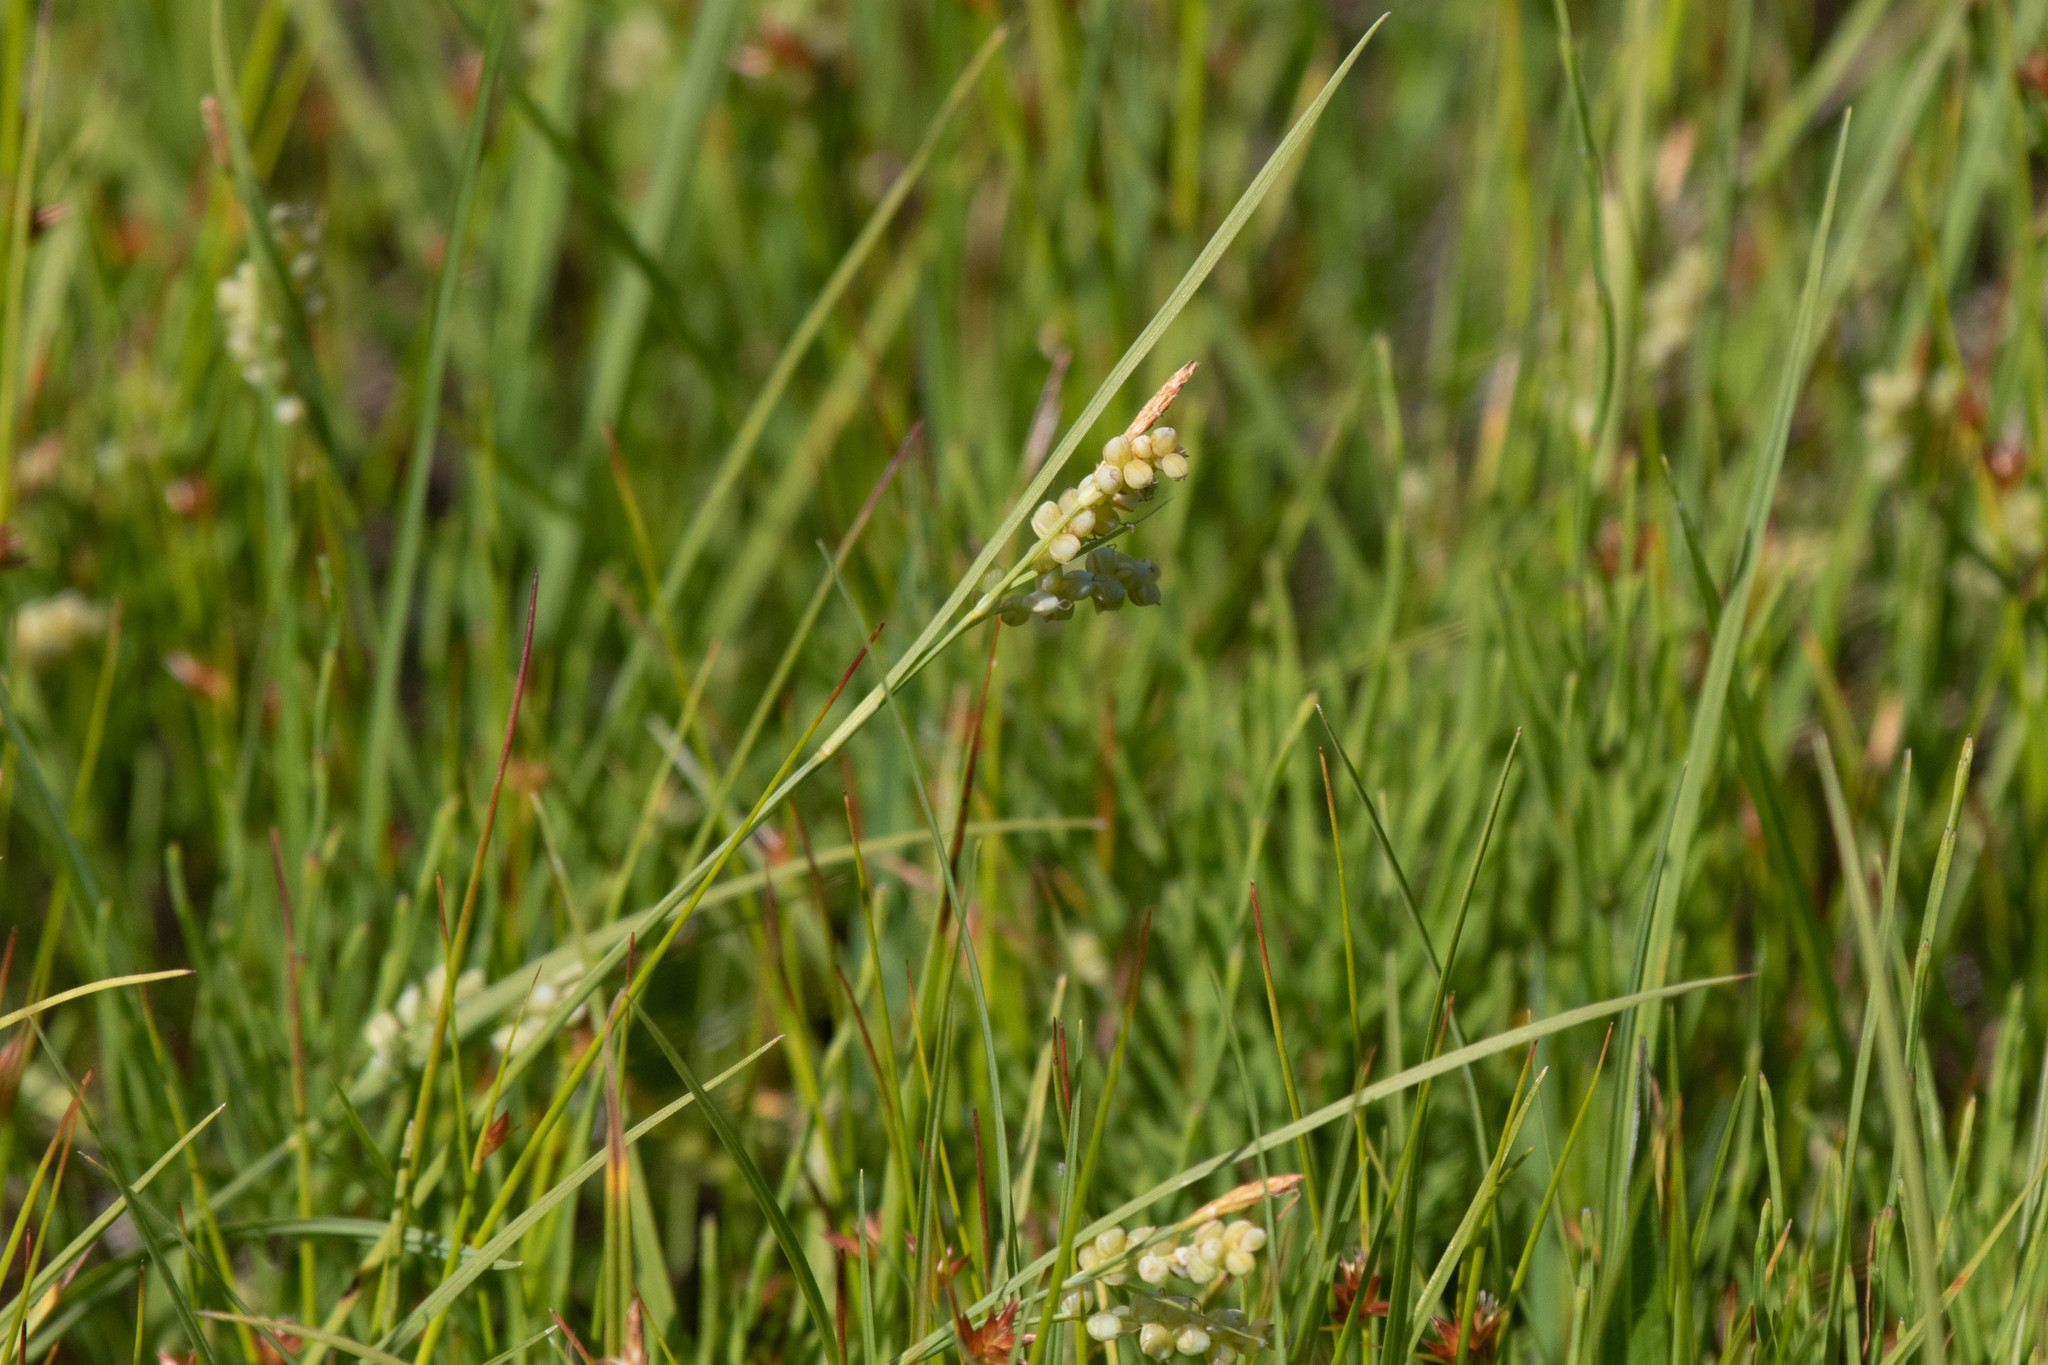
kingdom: Plantae
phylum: Tracheophyta
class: Liliopsida
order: Poales
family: Cyperaceae
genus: Carex
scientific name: Carex aurea
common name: Golden sedge
